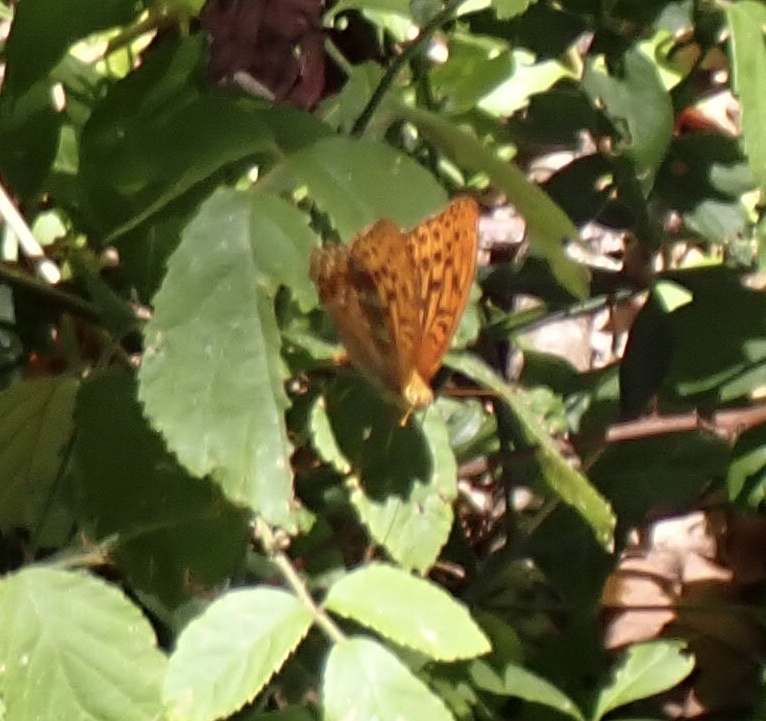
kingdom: Animalia
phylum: Arthropoda
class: Insecta
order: Lepidoptera
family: Nymphalidae
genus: Argynnis
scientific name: Argynnis paphia
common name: Silver-washed fritillary
